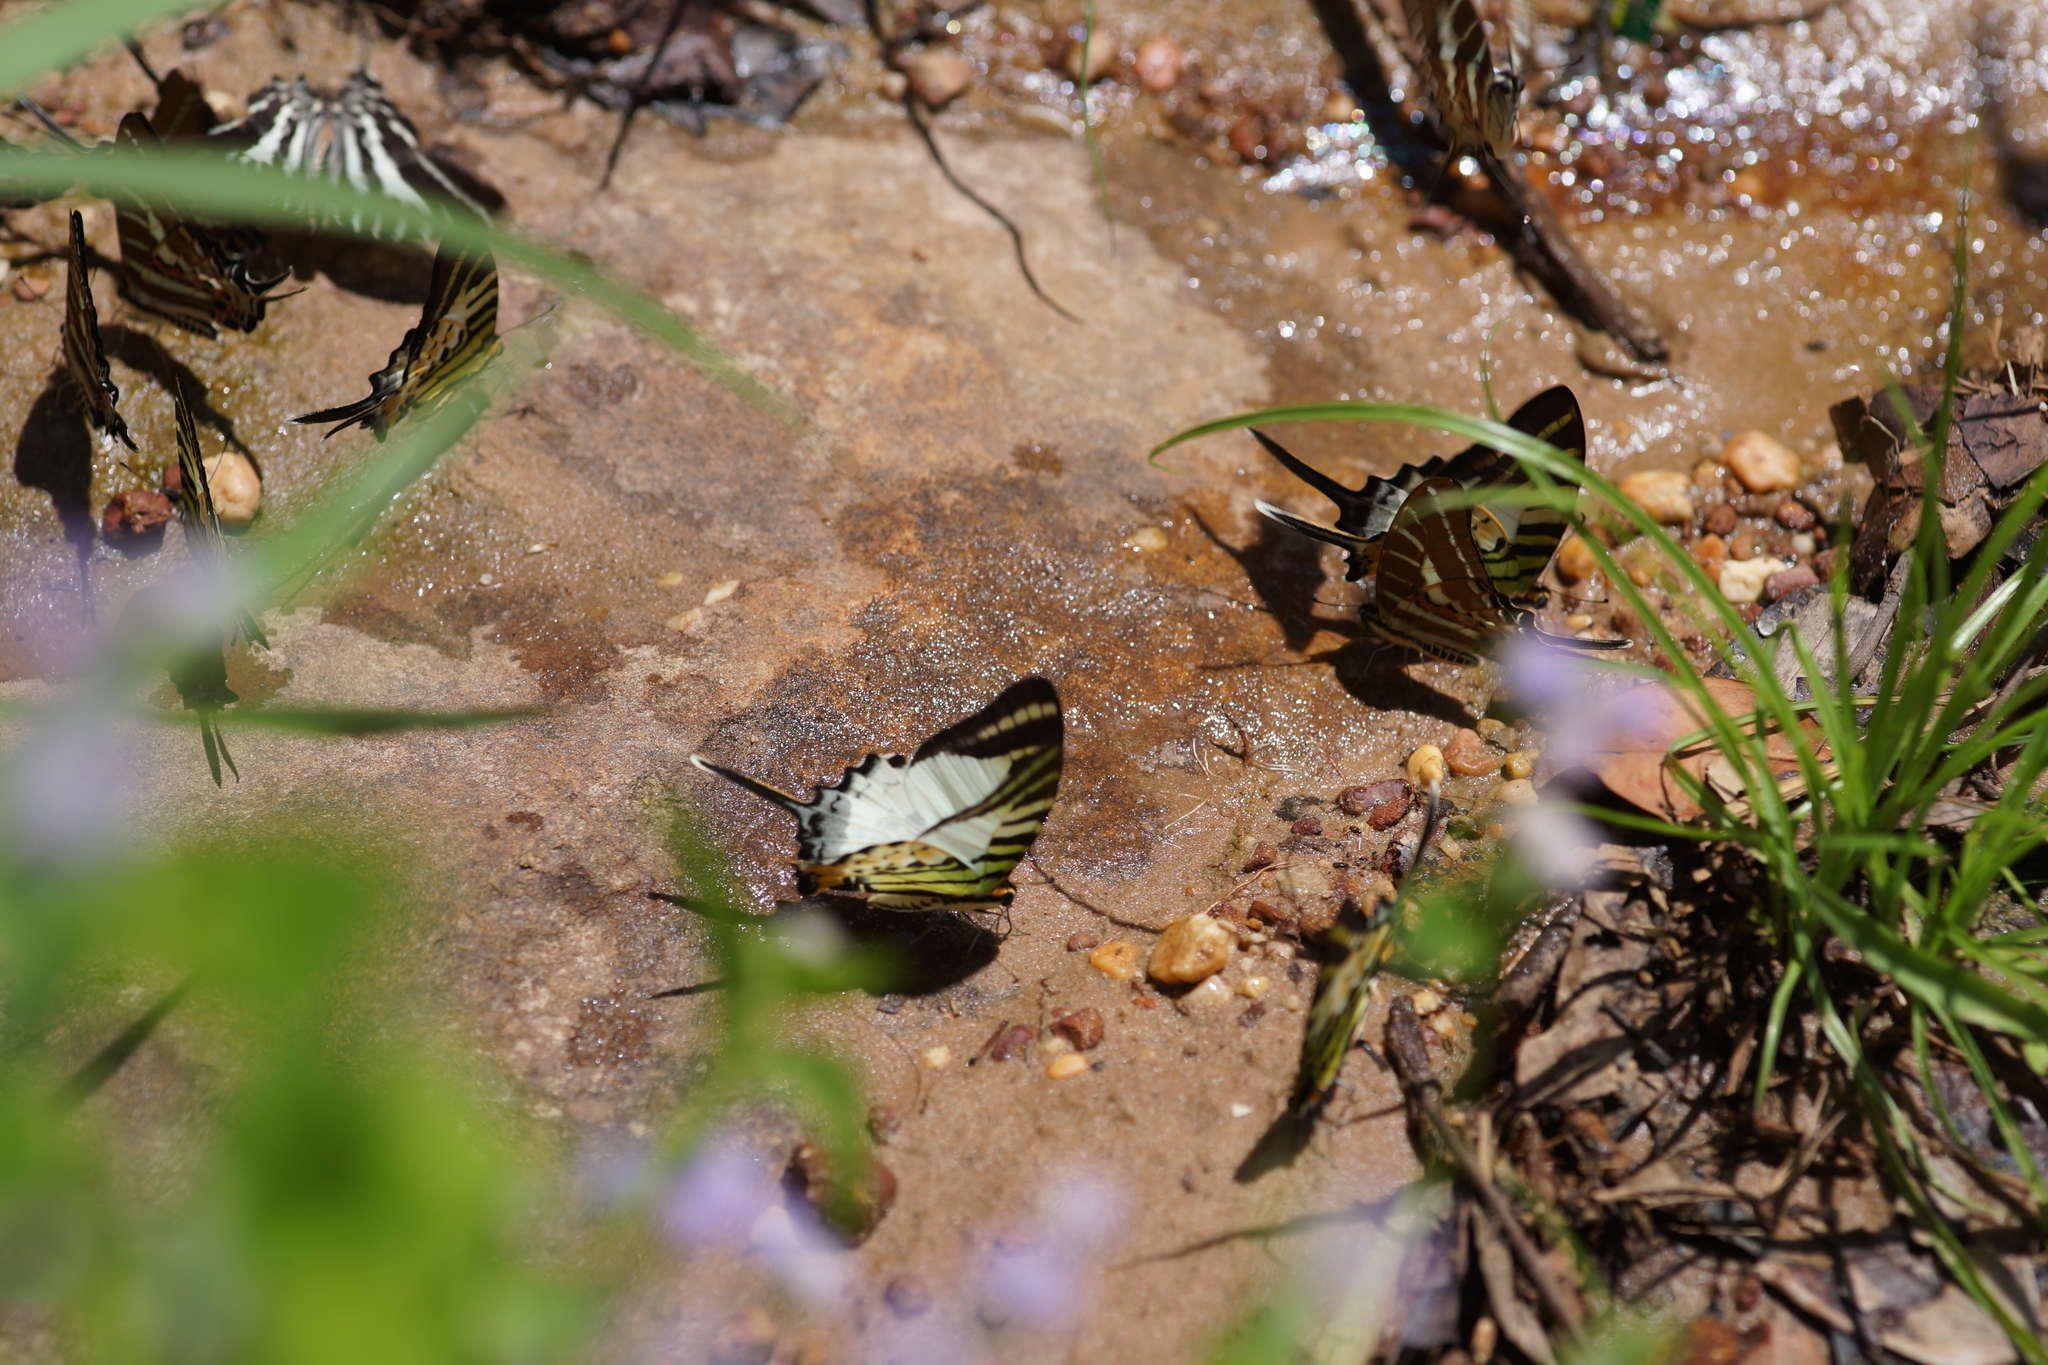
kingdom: Animalia
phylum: Arthropoda
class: Insecta
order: Lepidoptera
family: Papilionidae
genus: Graphium
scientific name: Graphium antiphates
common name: Fivebar swordtail
